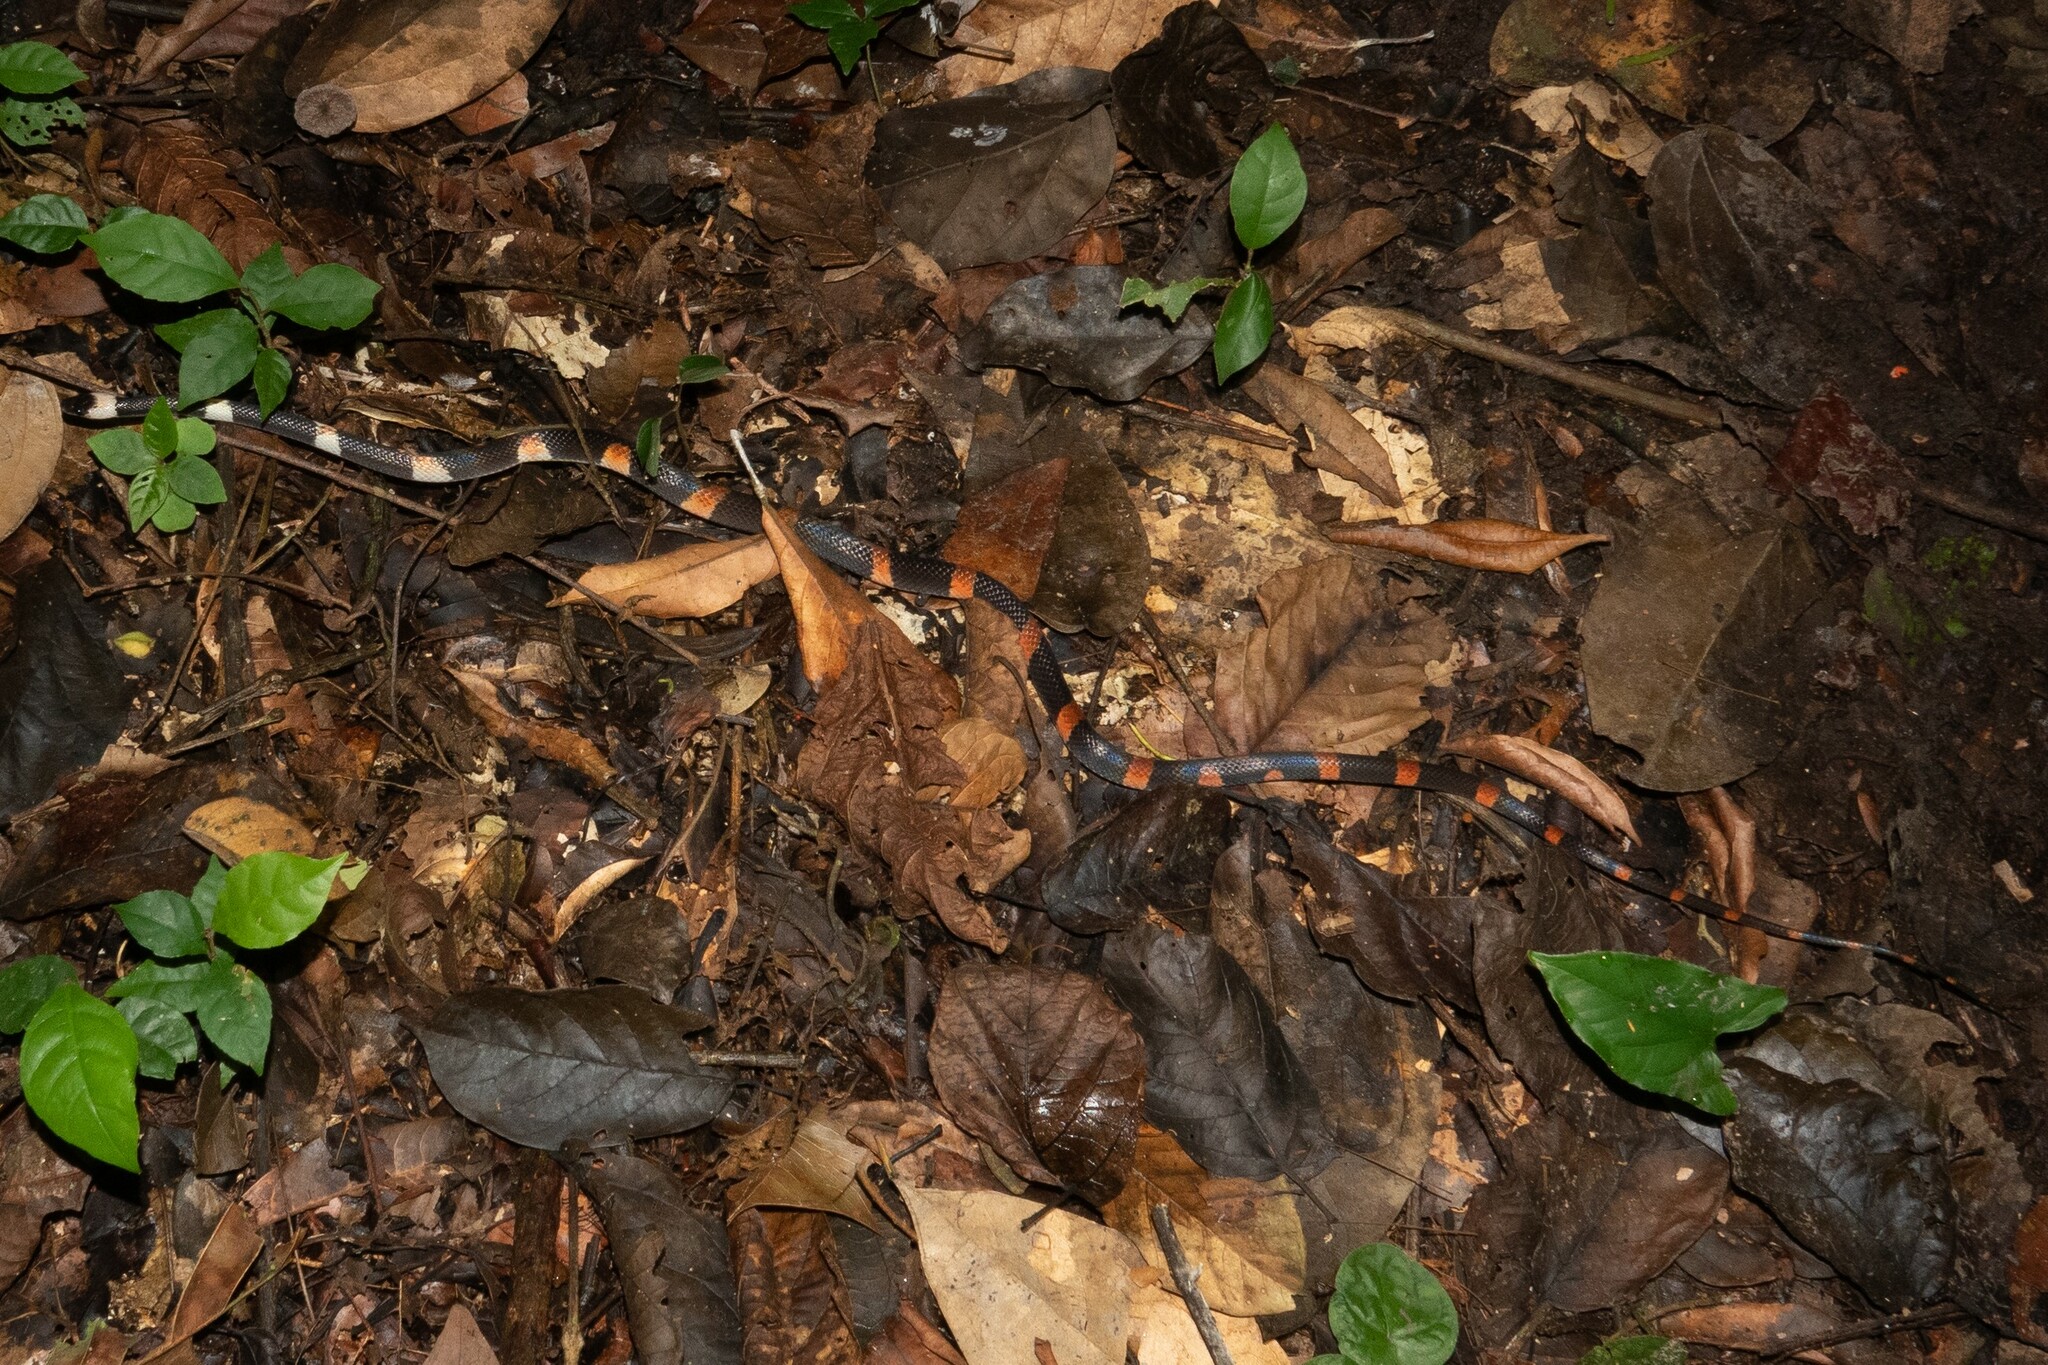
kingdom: Animalia
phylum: Chordata
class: Squamata
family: Colubridae
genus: Oxyrhopus
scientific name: Oxyrhopus petolarius
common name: Forest flame snake
